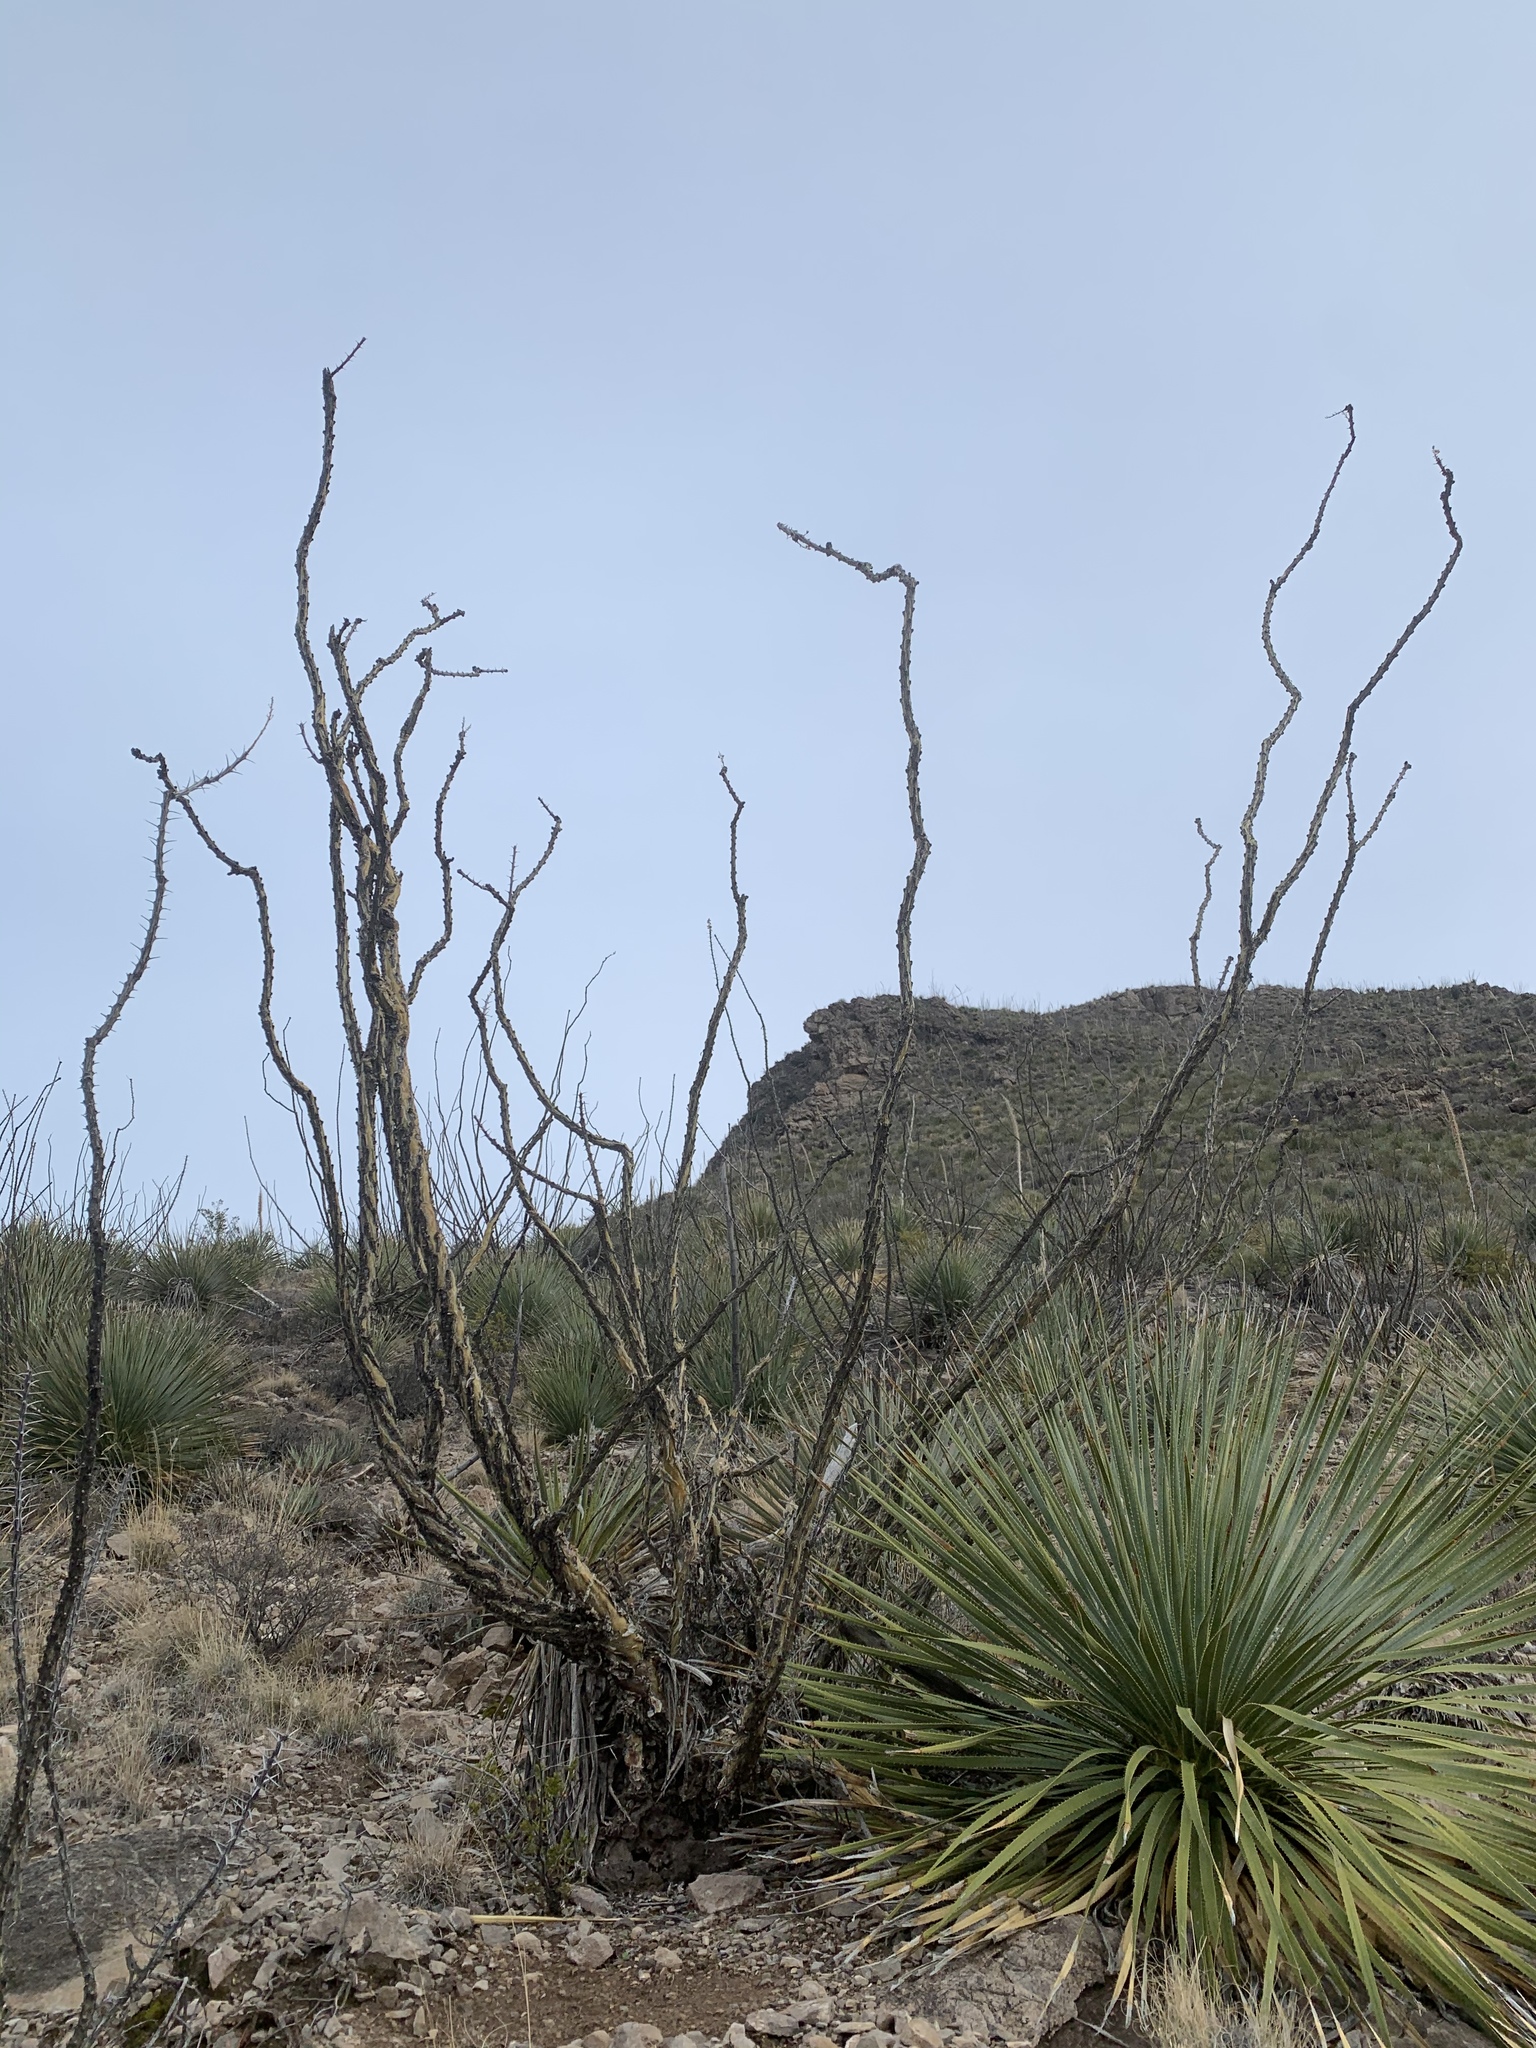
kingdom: Plantae
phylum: Tracheophyta
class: Magnoliopsida
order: Ericales
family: Fouquieriaceae
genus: Fouquieria
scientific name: Fouquieria splendens
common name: Vine-cactus
